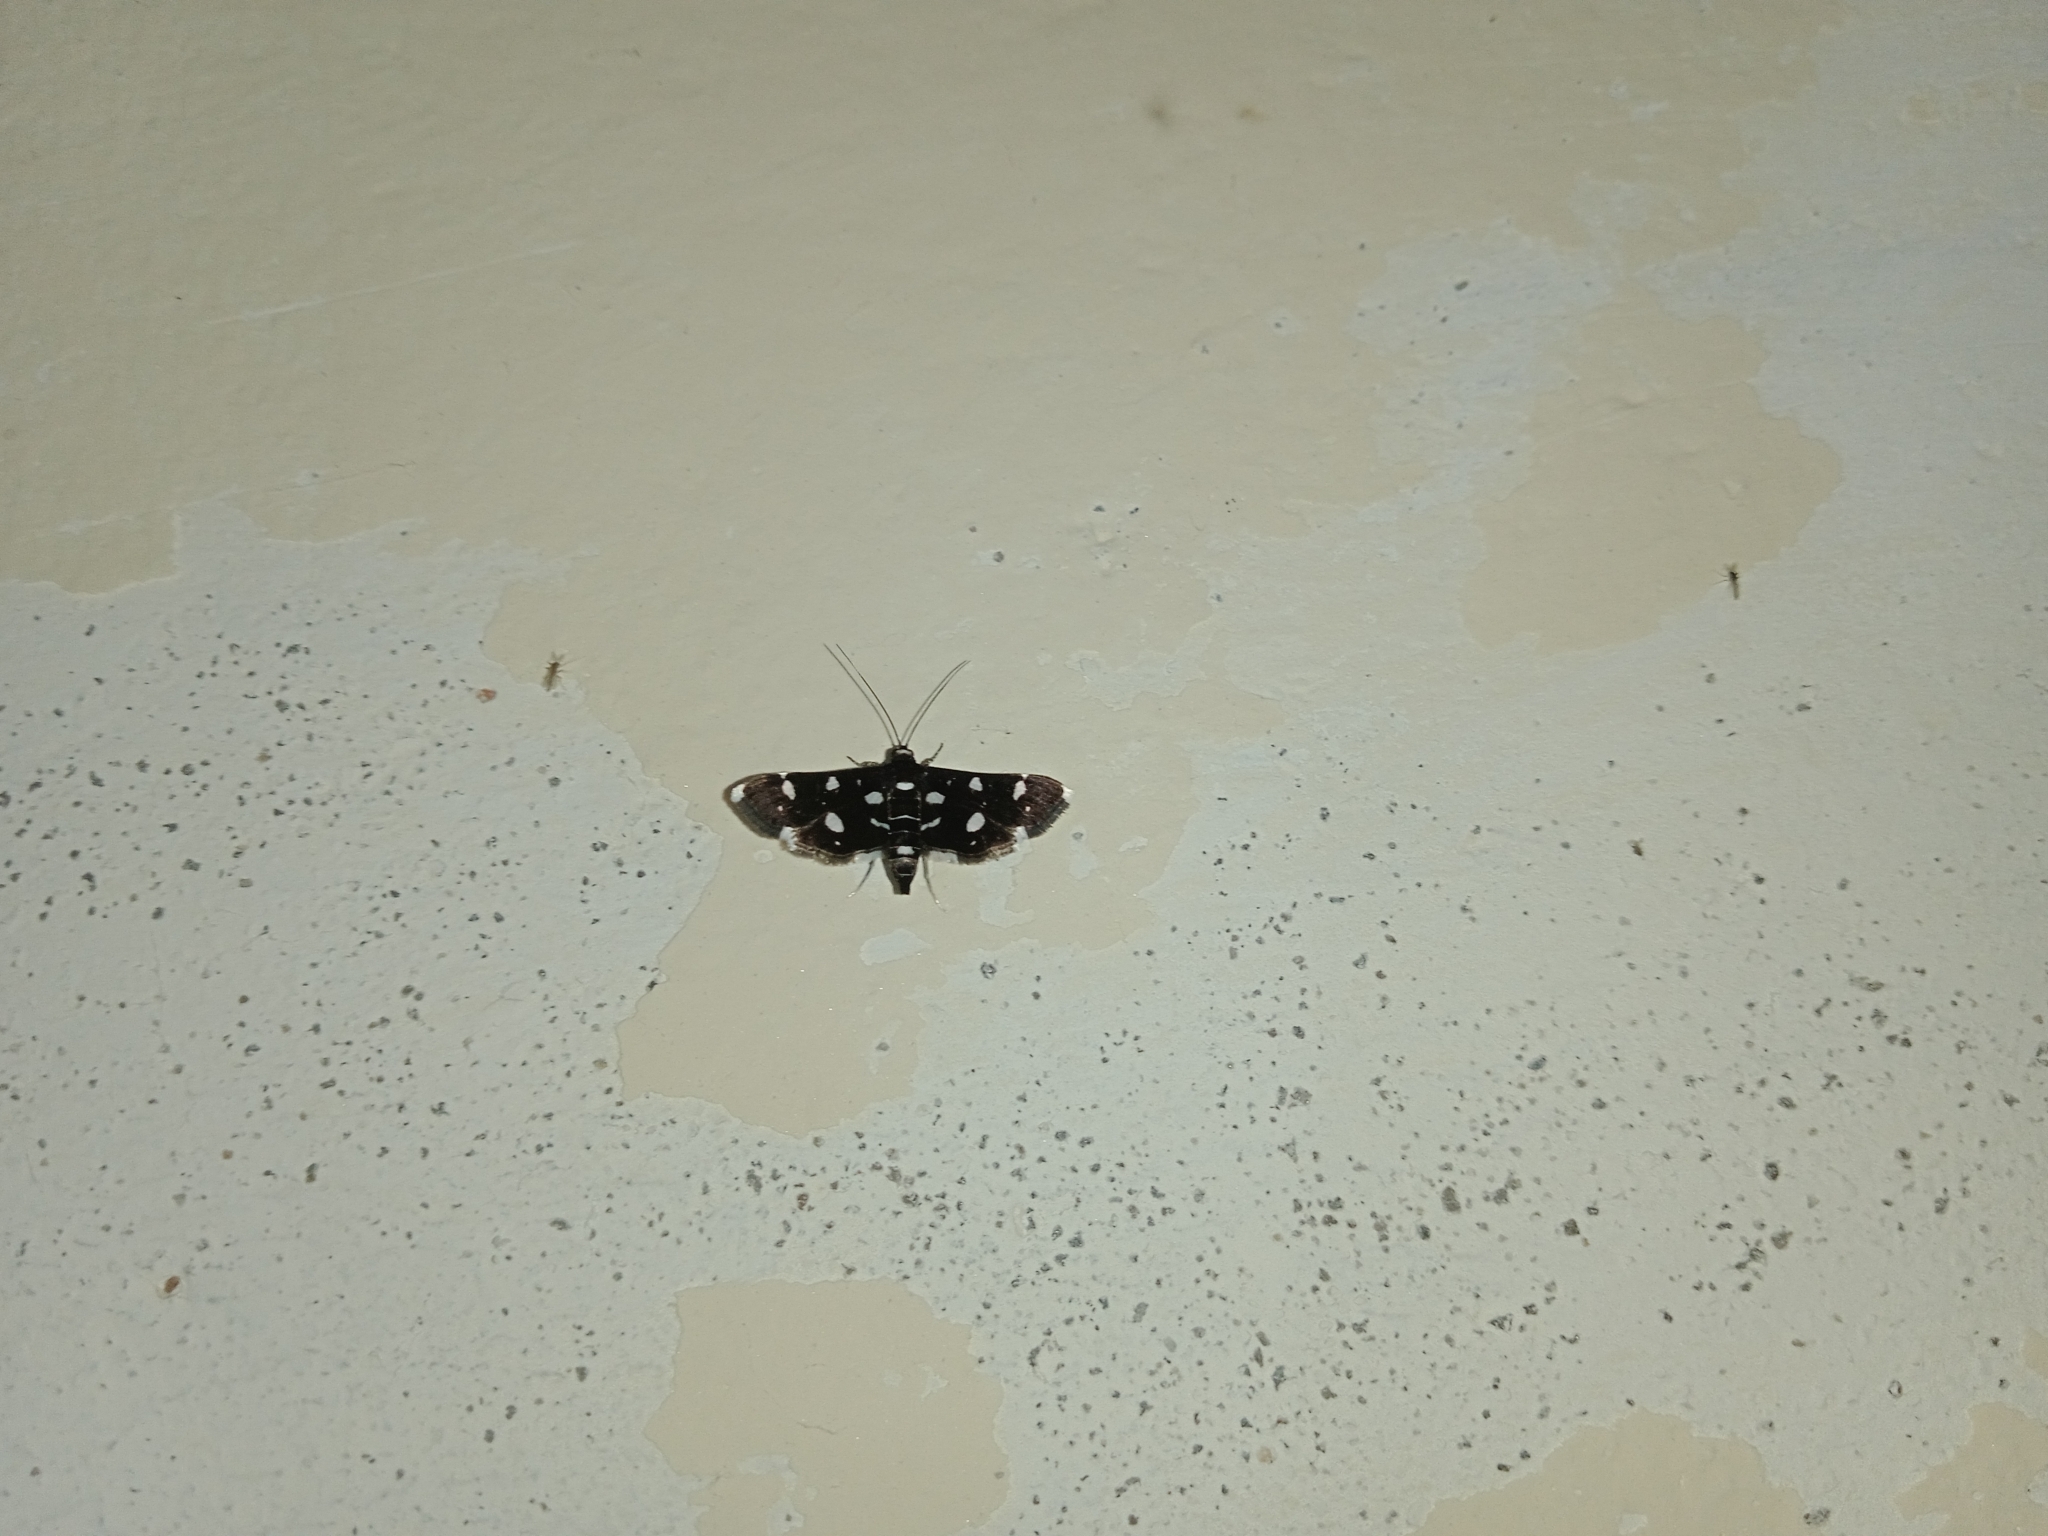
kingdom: Animalia
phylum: Arthropoda
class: Insecta
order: Lepidoptera
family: Crambidae
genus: Bocchoris
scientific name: Bocchoris inspersalis
